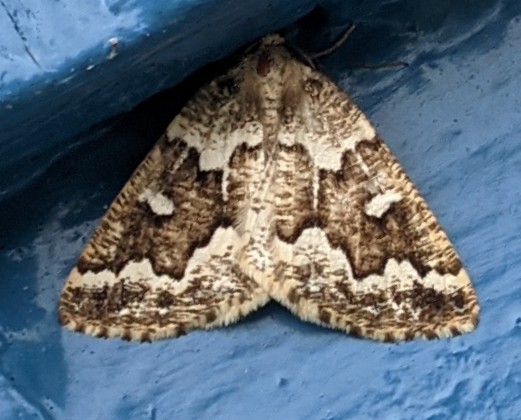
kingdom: Animalia
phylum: Arthropoda
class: Insecta
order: Lepidoptera
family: Geometridae
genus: Caripeta
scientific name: Caripeta divisata
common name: Gray spruce looper
